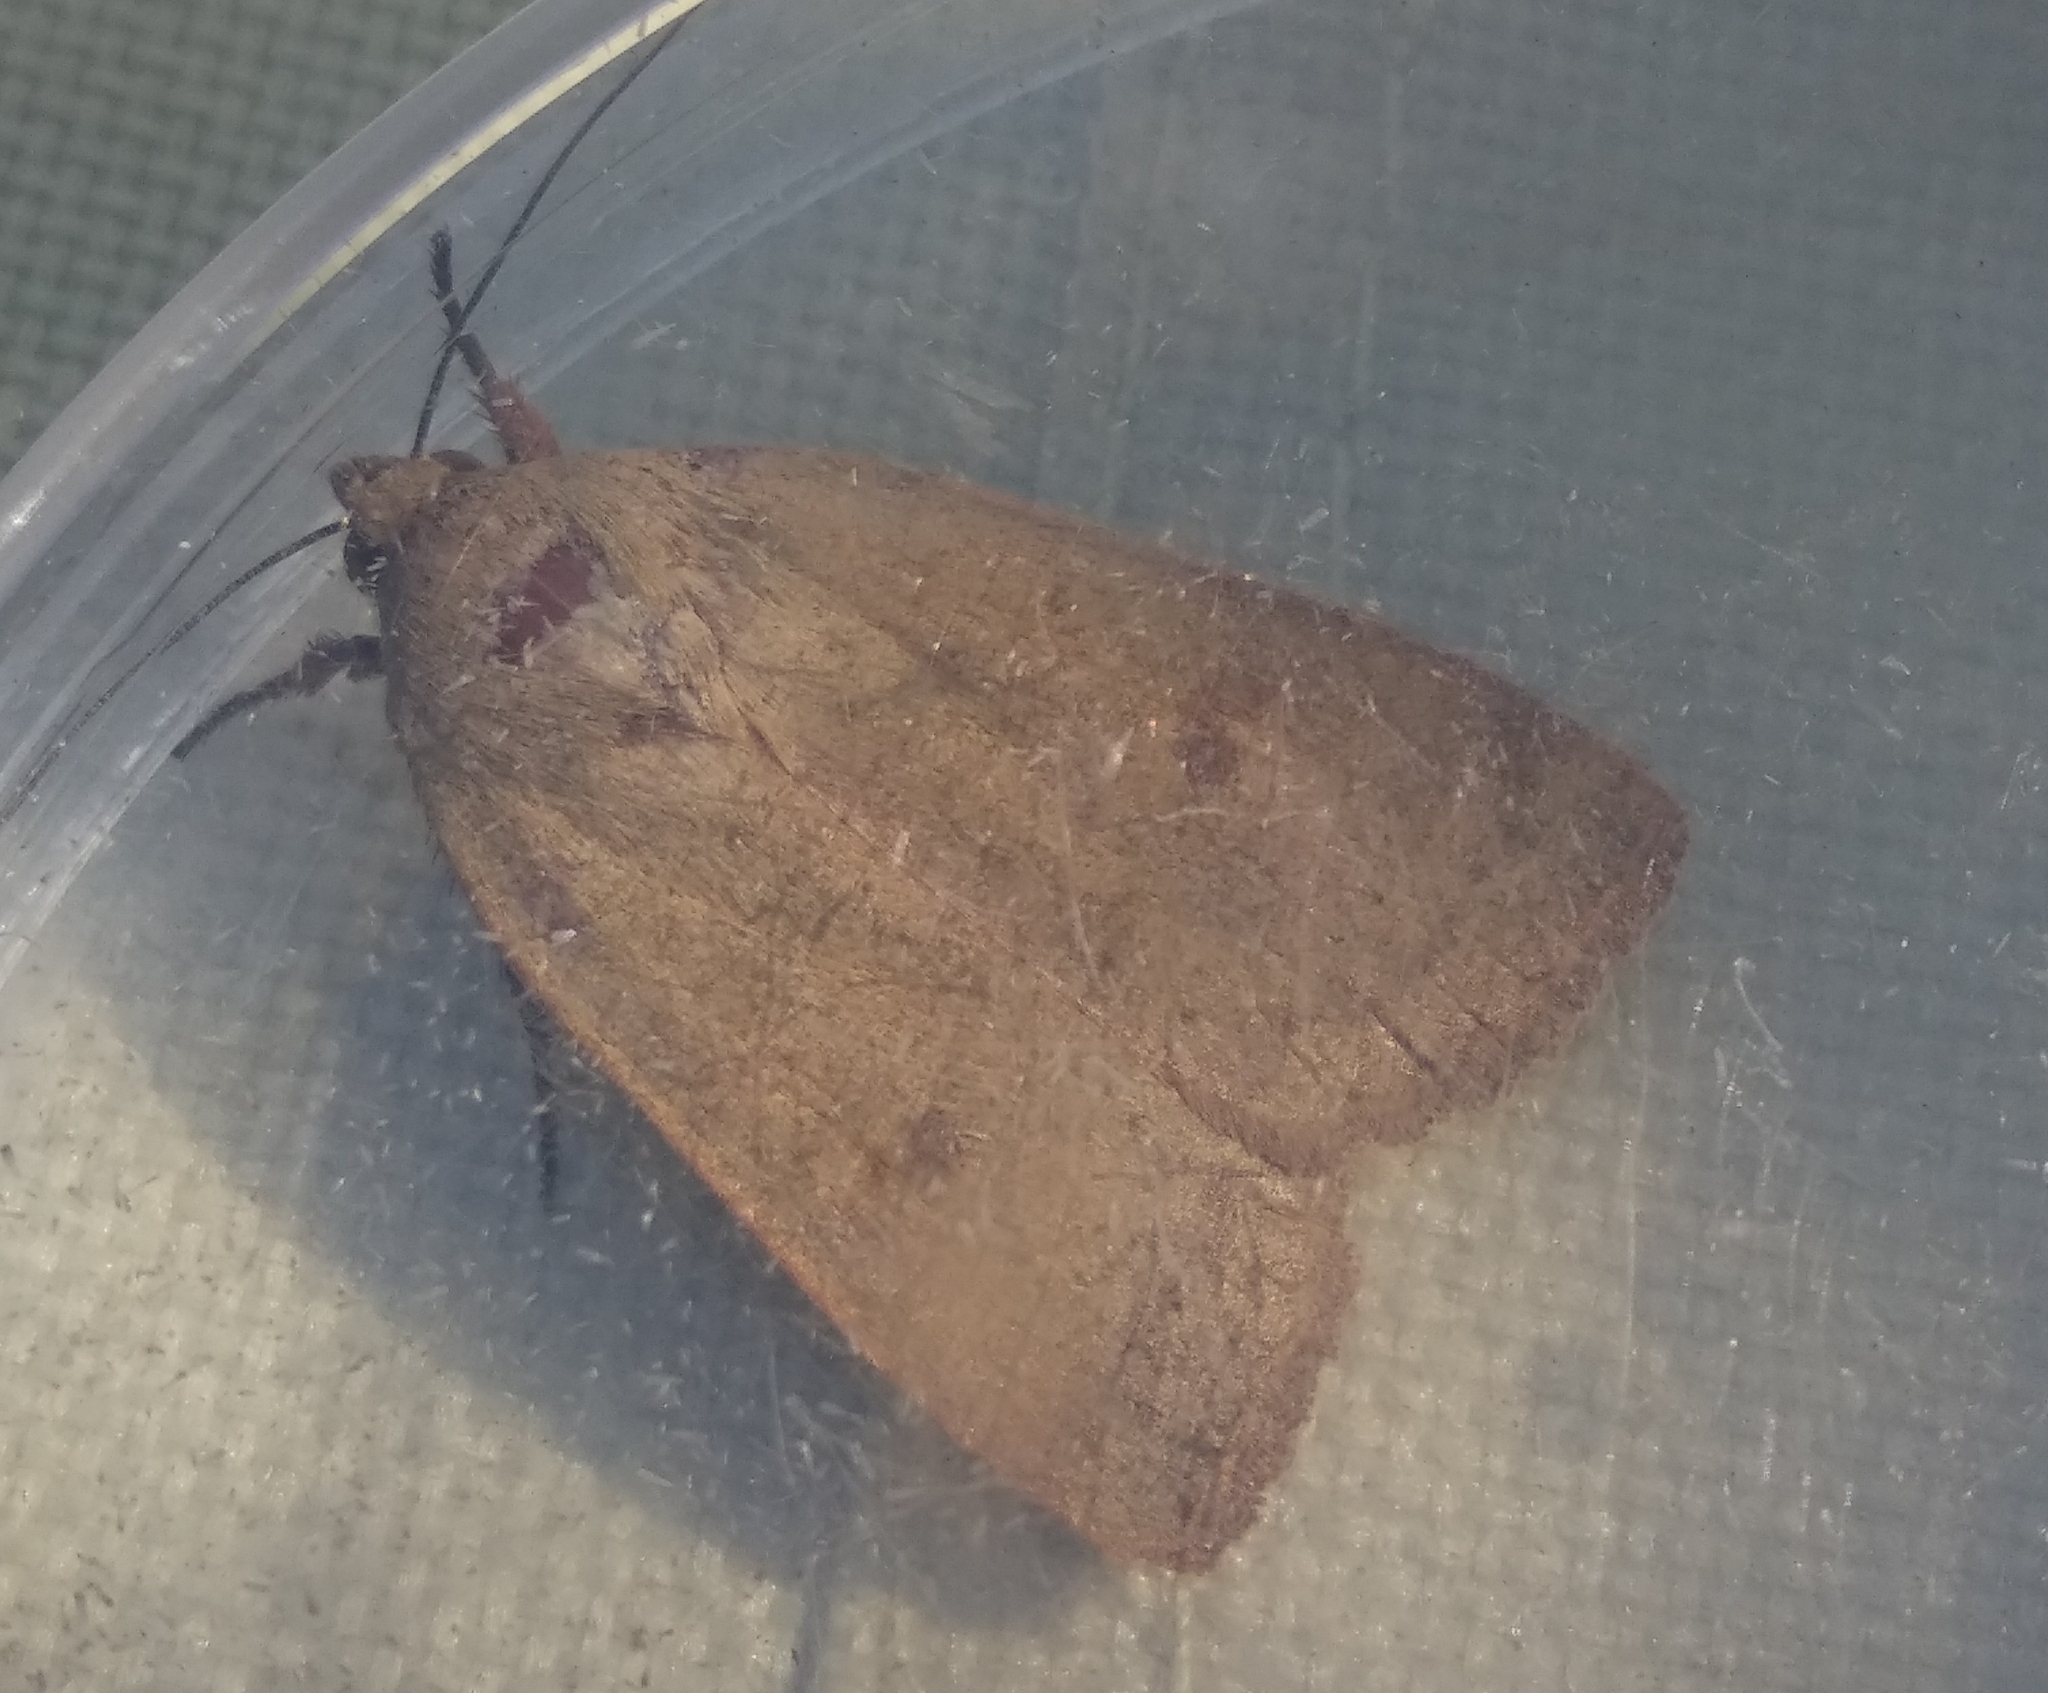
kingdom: Animalia
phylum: Arthropoda
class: Insecta
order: Lepidoptera
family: Noctuidae
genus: Noctua
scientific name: Noctua comes
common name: Lesser yellow underwing
